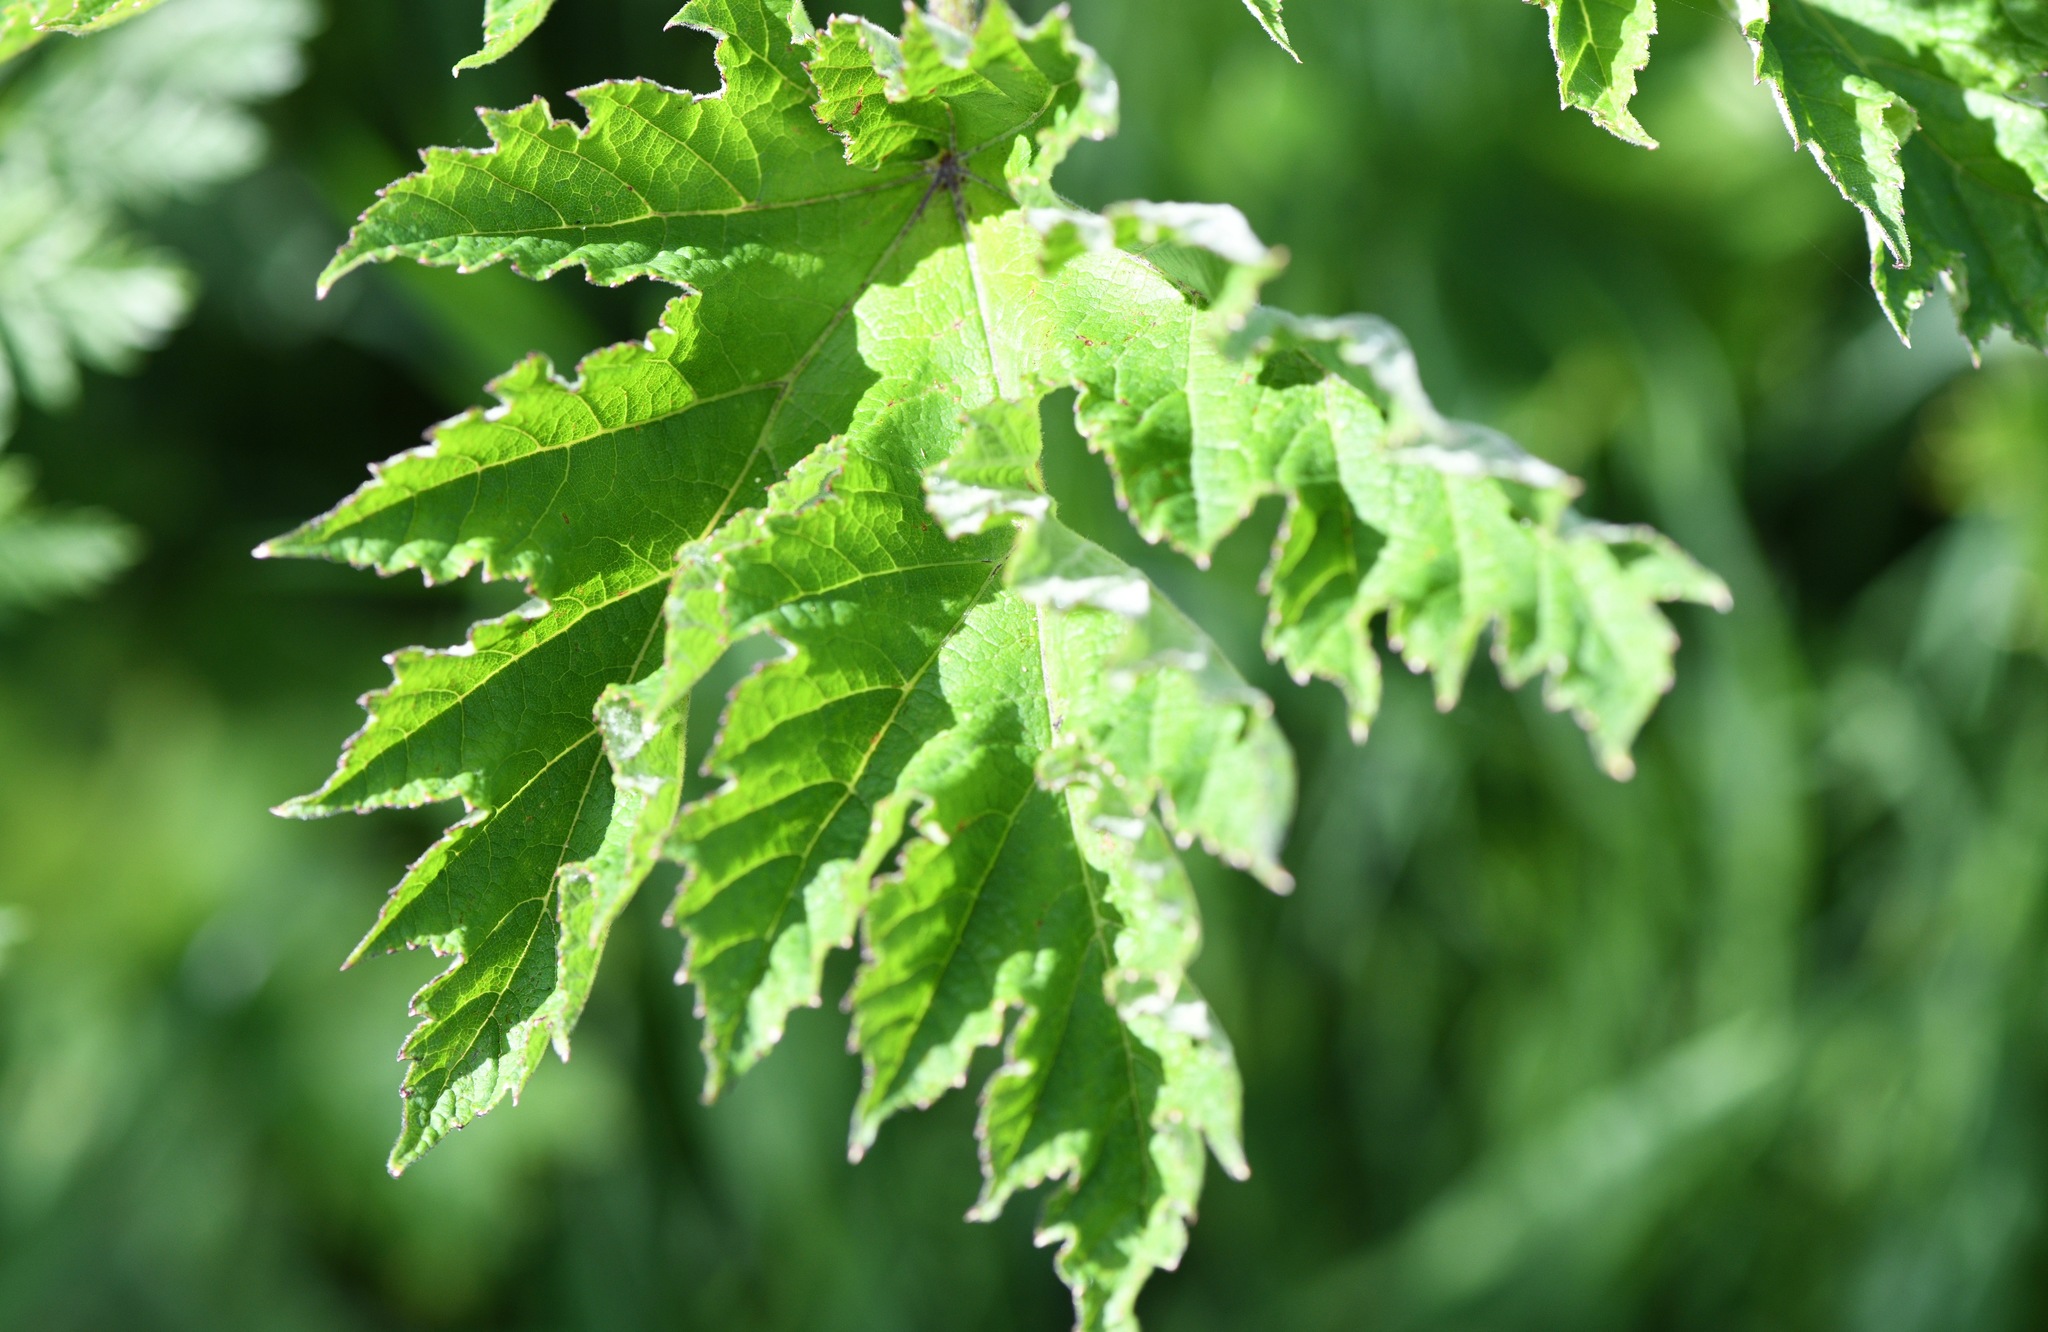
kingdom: Plantae
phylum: Tracheophyta
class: Magnoliopsida
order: Apiales
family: Apiaceae
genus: Heracleum
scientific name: Heracleum maximum
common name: American cow parsnip
